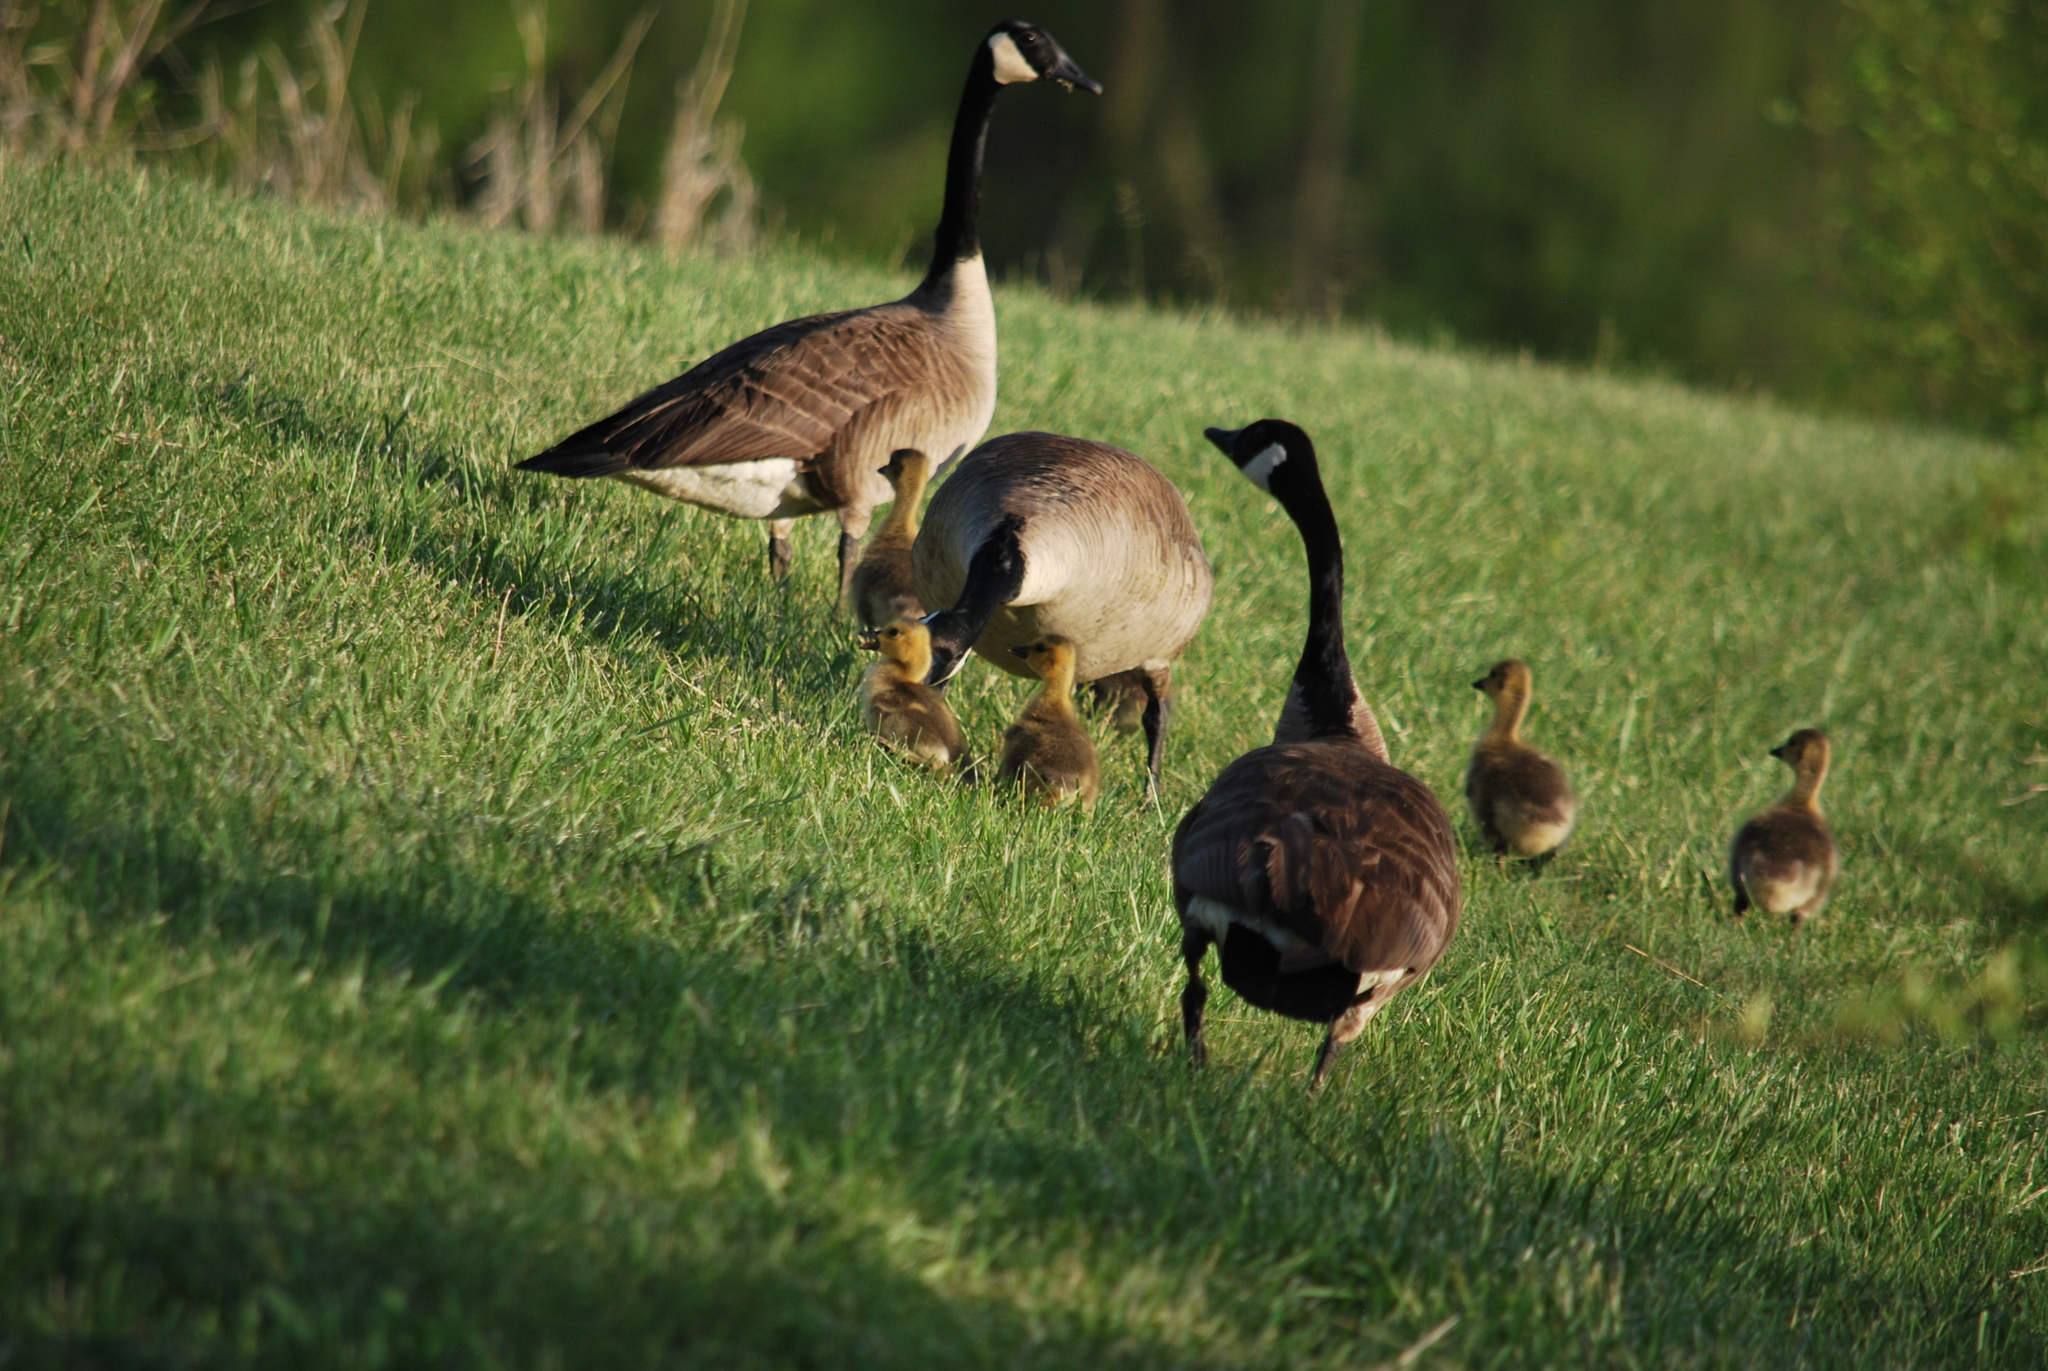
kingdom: Animalia
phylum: Chordata
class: Aves
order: Anseriformes
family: Anatidae
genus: Branta
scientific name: Branta canadensis
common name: Canada goose
